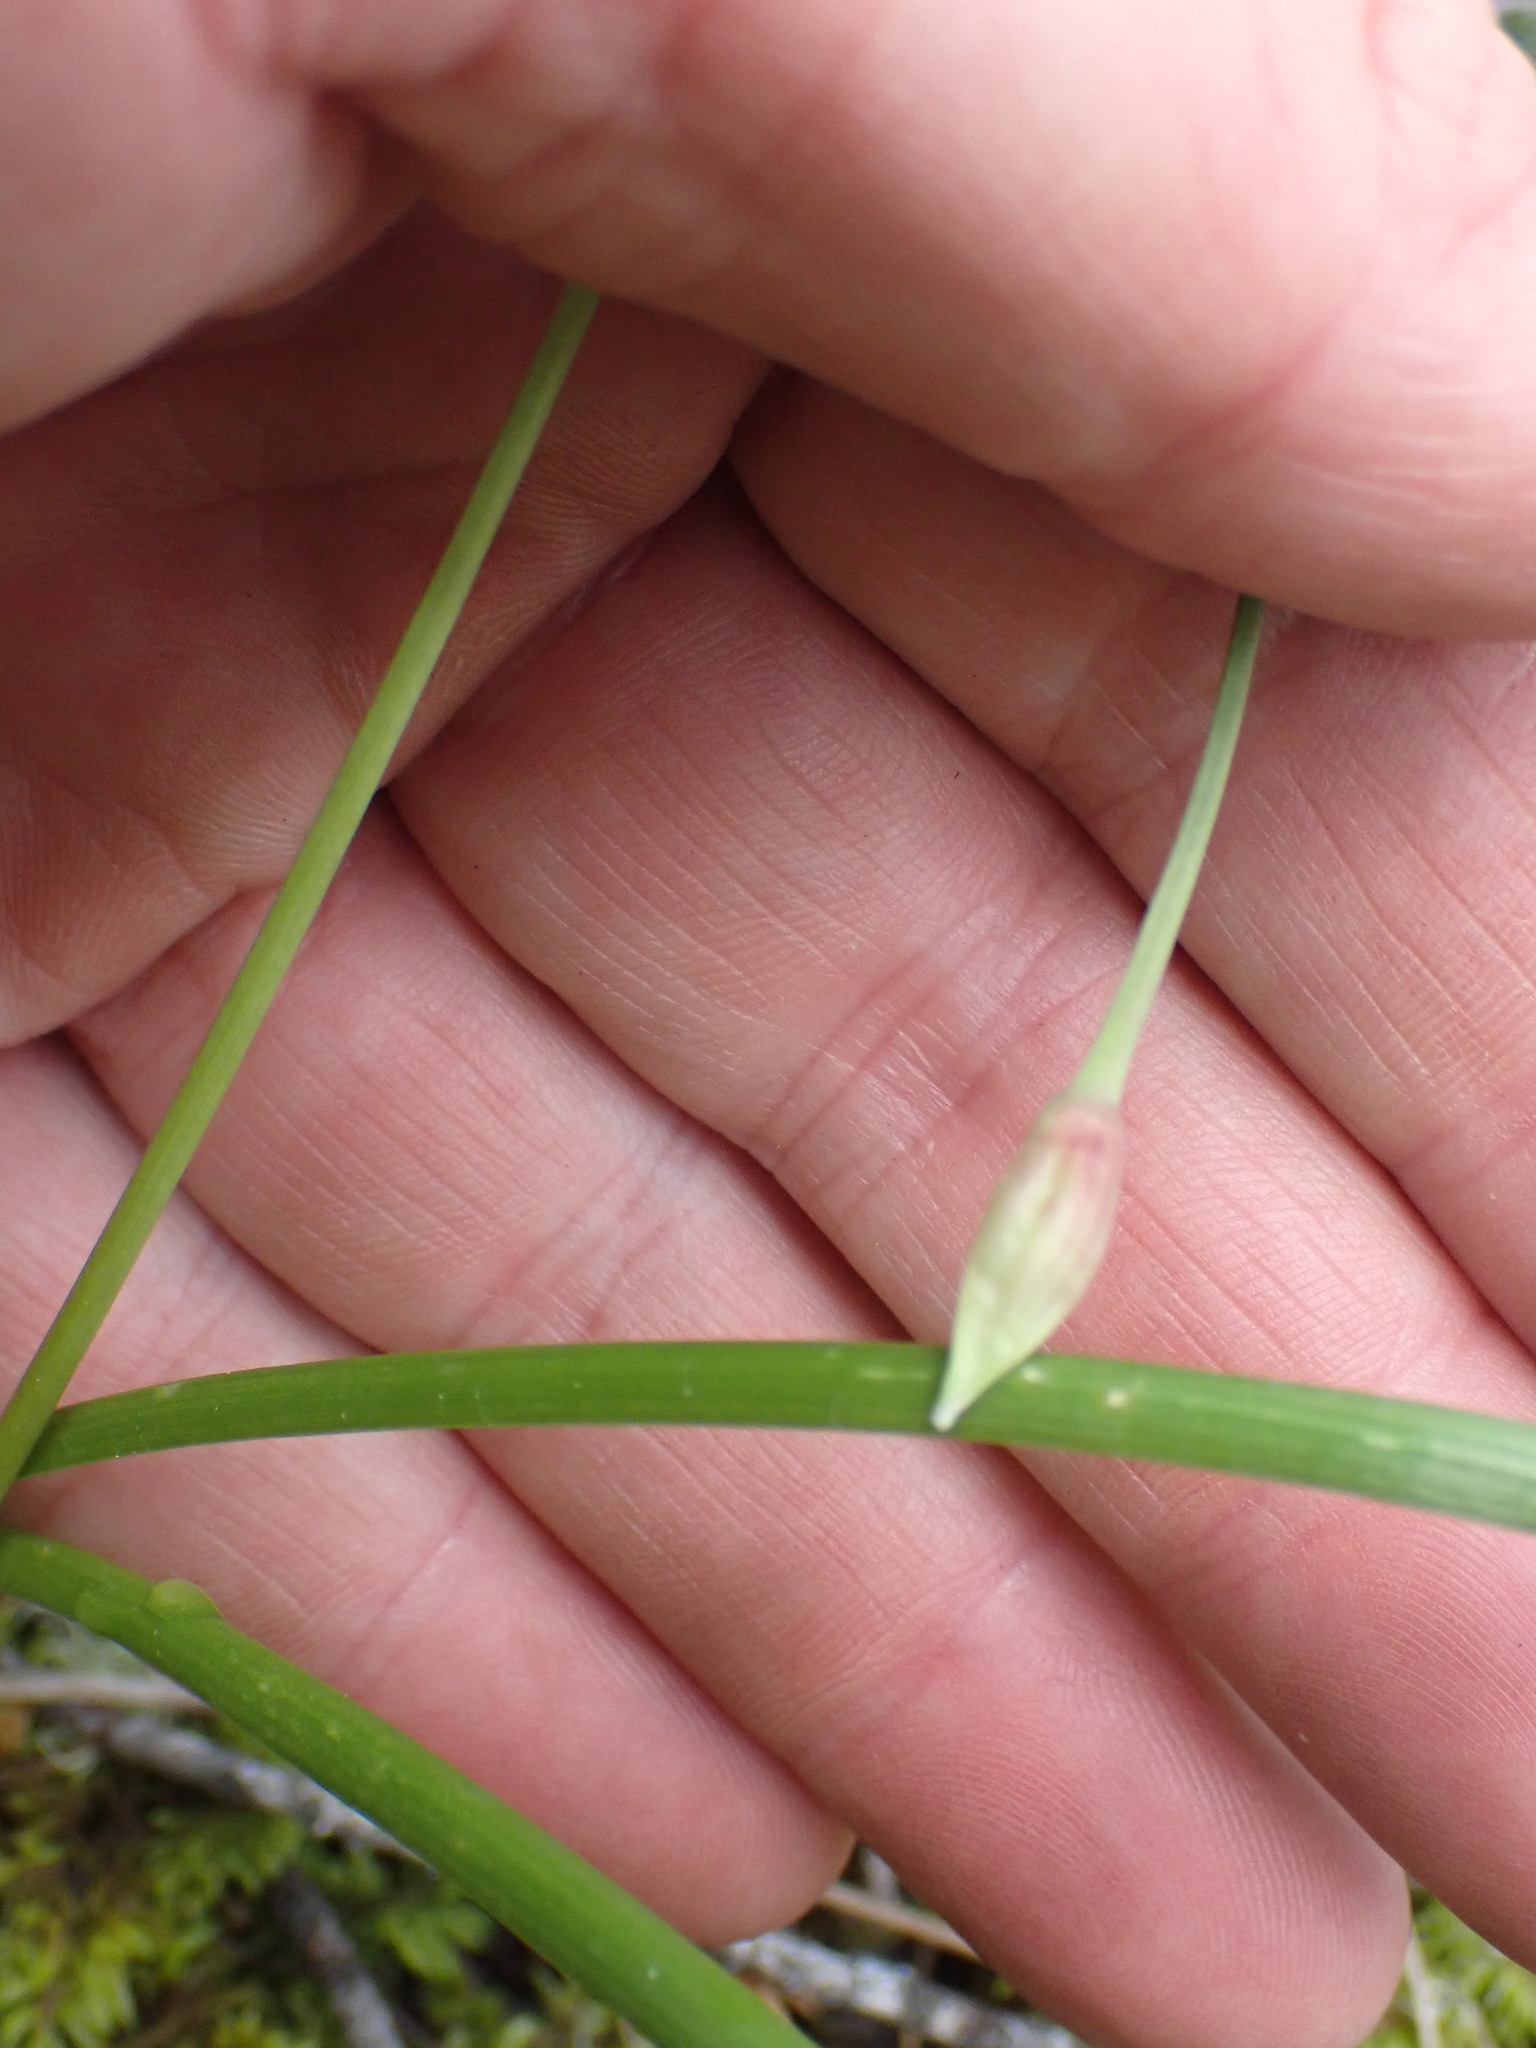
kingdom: Plantae
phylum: Tracheophyta
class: Liliopsida
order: Asparagales
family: Amaryllidaceae
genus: Allium
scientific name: Allium cernuum
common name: Nodding onion
